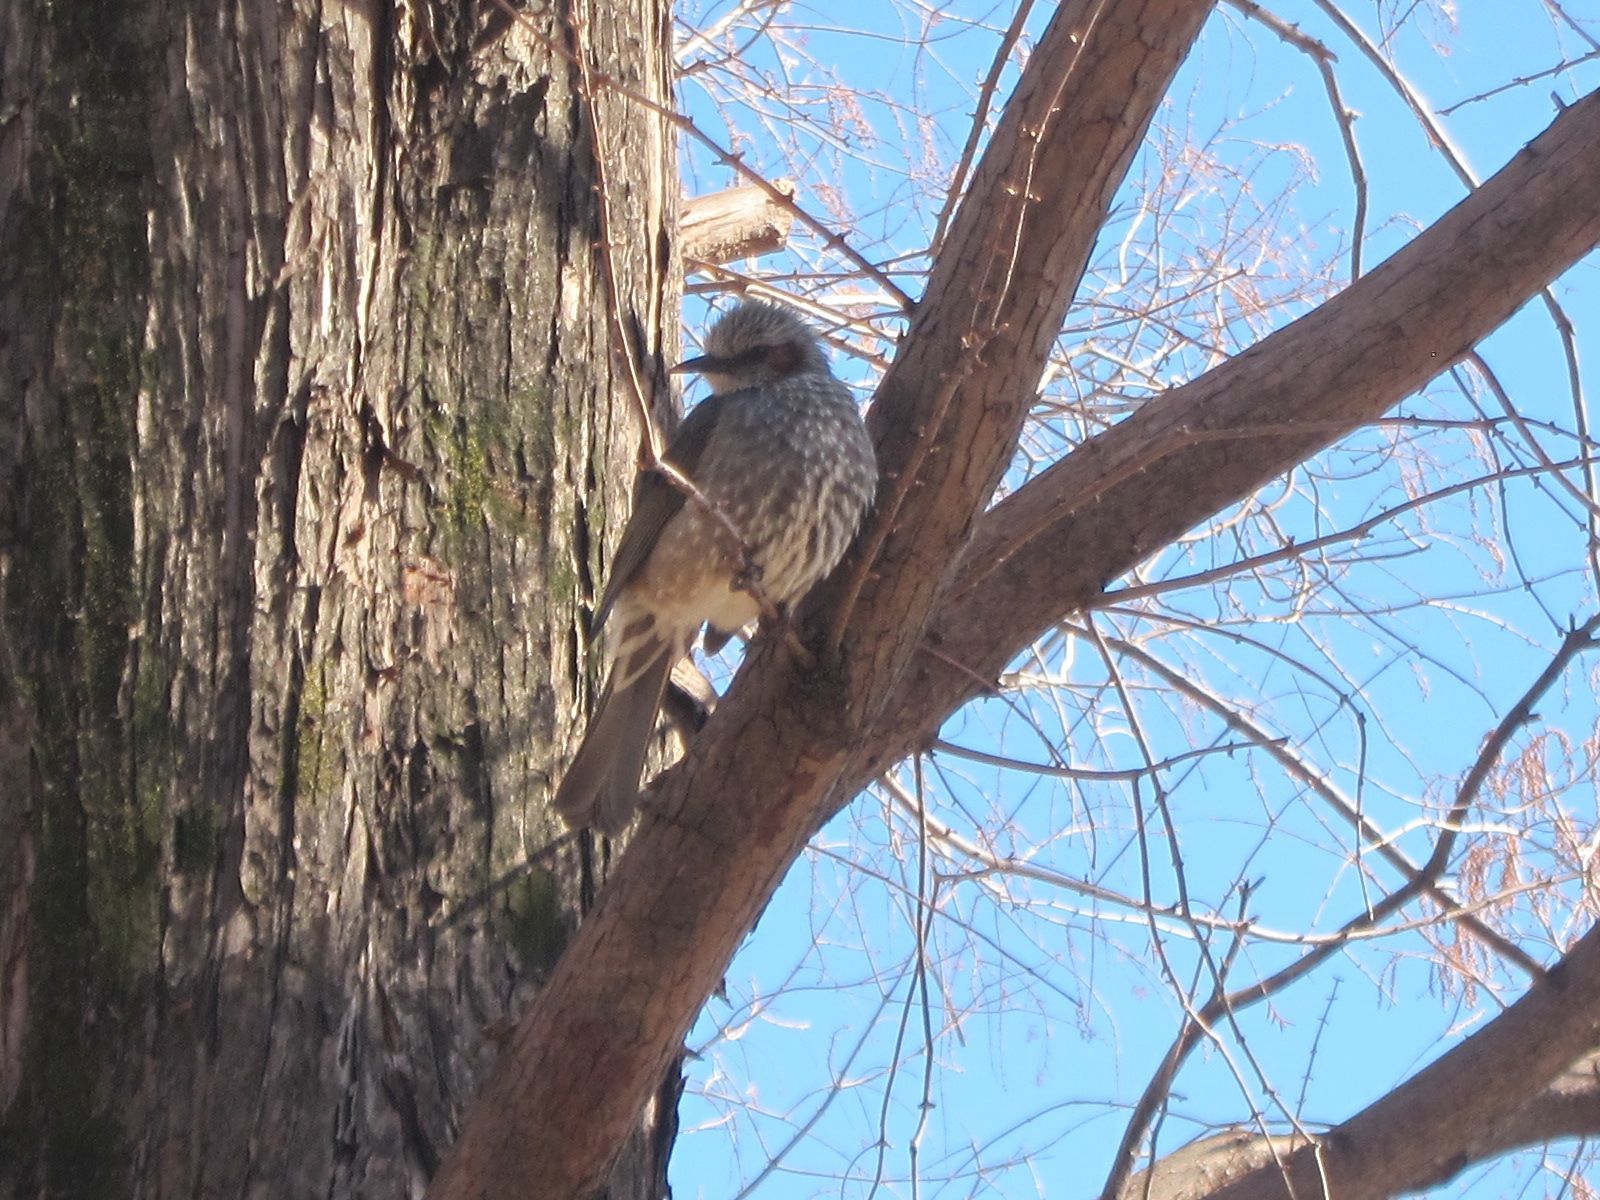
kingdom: Animalia
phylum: Chordata
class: Aves
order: Passeriformes
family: Pycnonotidae
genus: Hypsipetes
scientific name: Hypsipetes amaurotis
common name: Brown-eared bulbul
